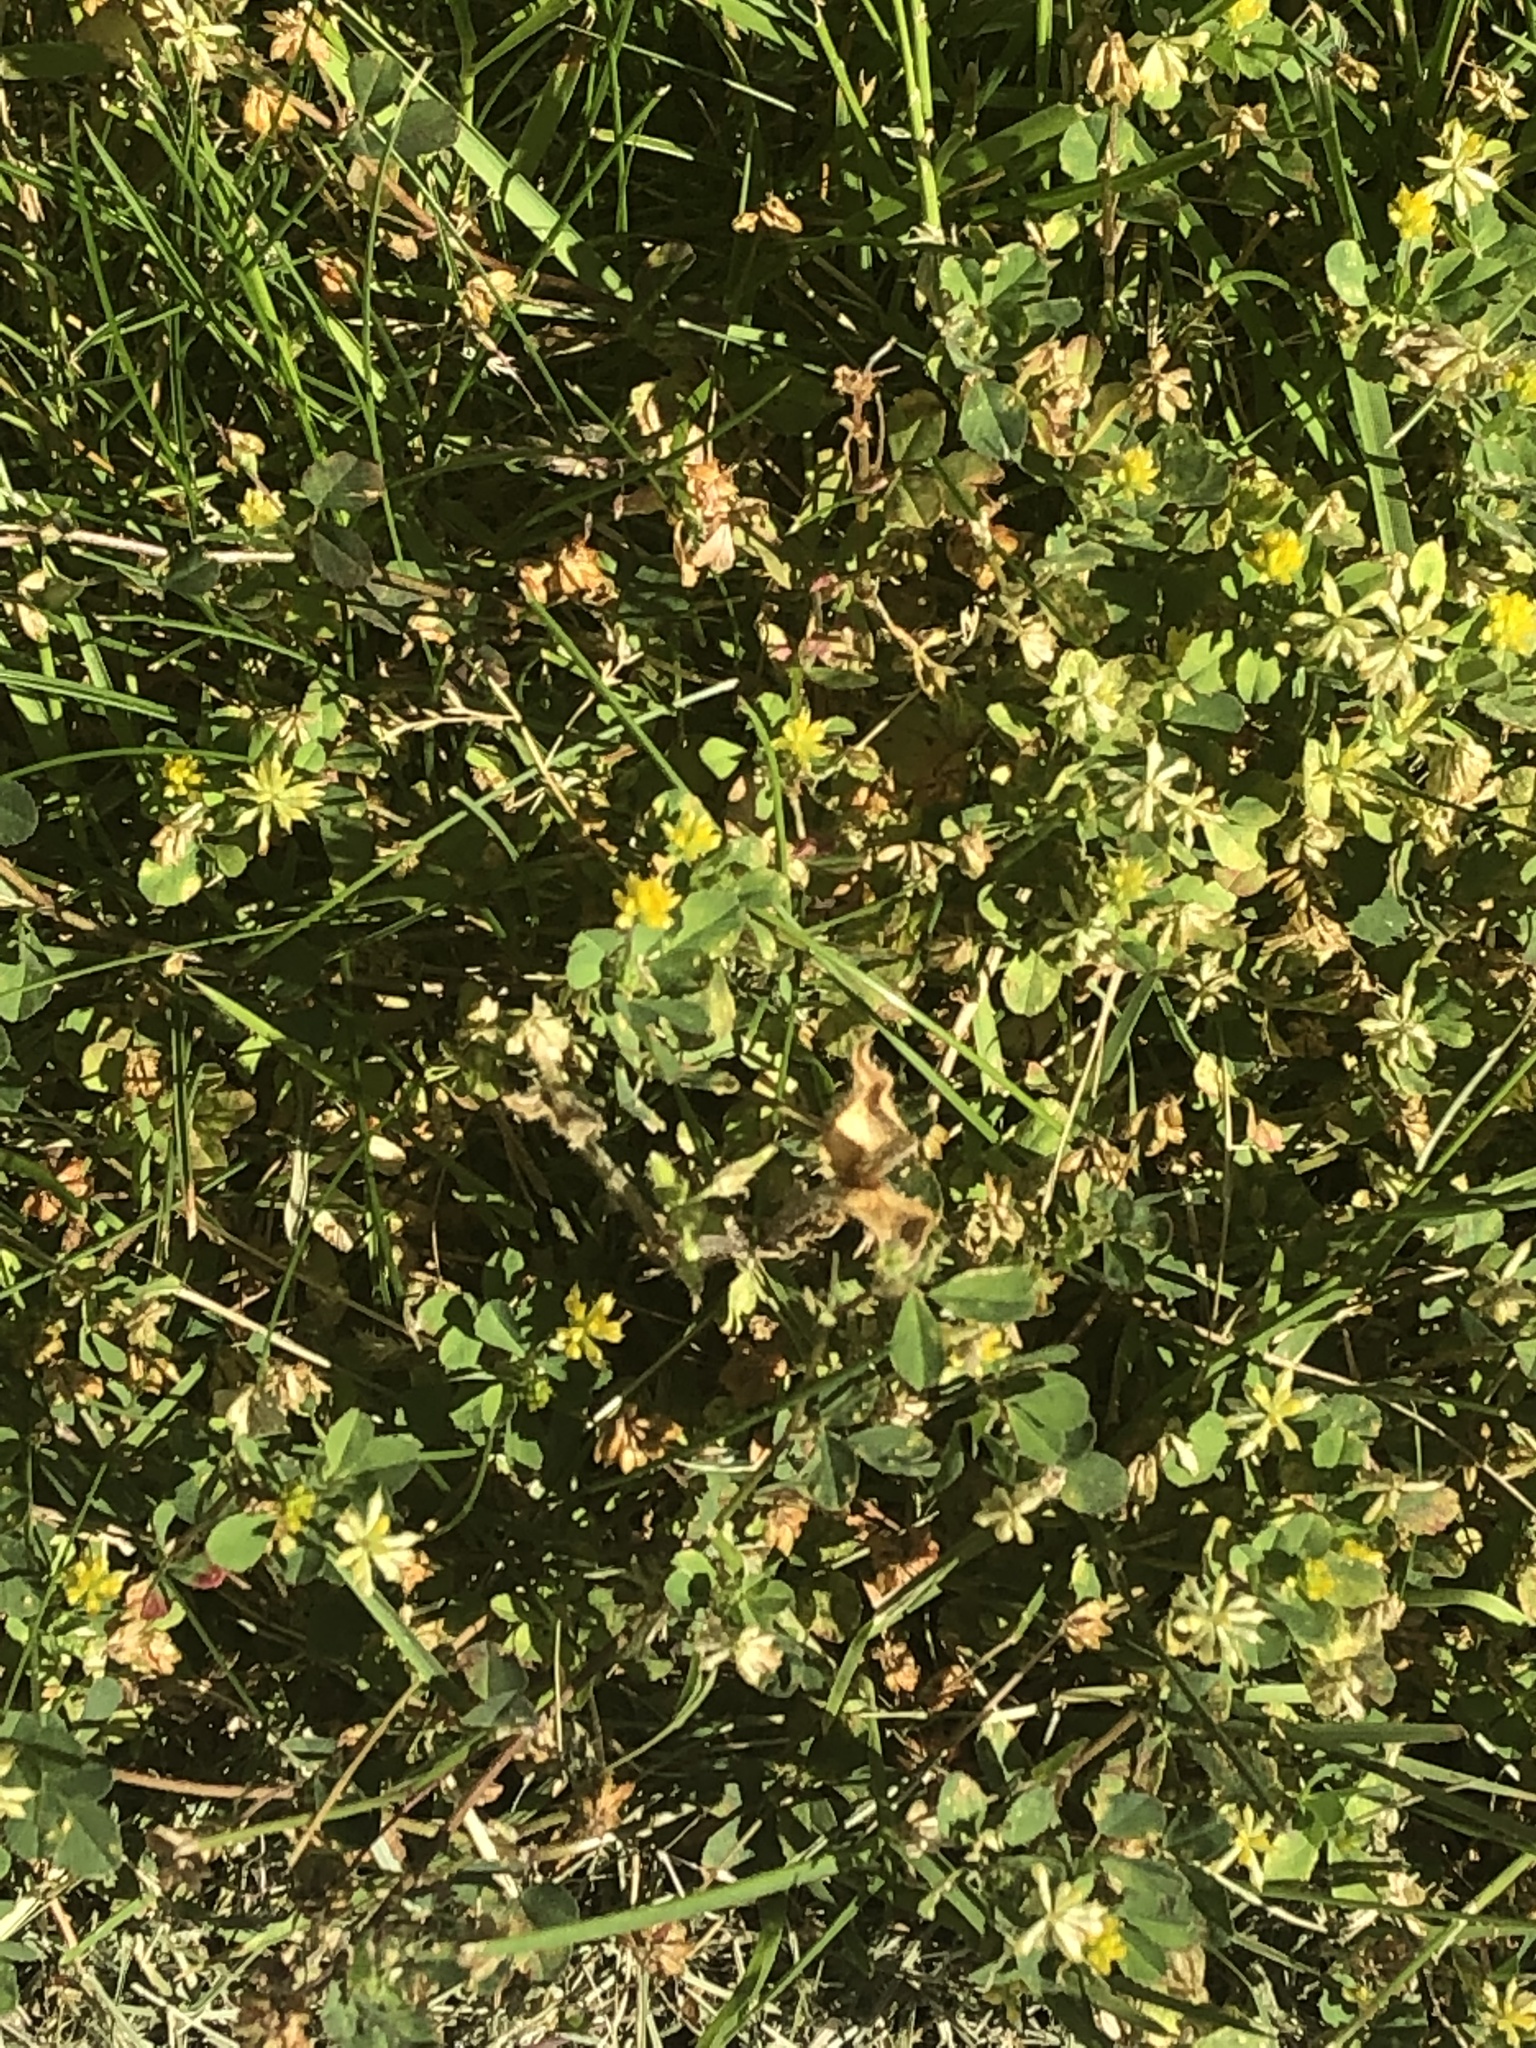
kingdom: Plantae
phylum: Tracheophyta
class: Magnoliopsida
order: Fabales
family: Fabaceae
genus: Trifolium
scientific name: Trifolium dubium
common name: Suckling clover
